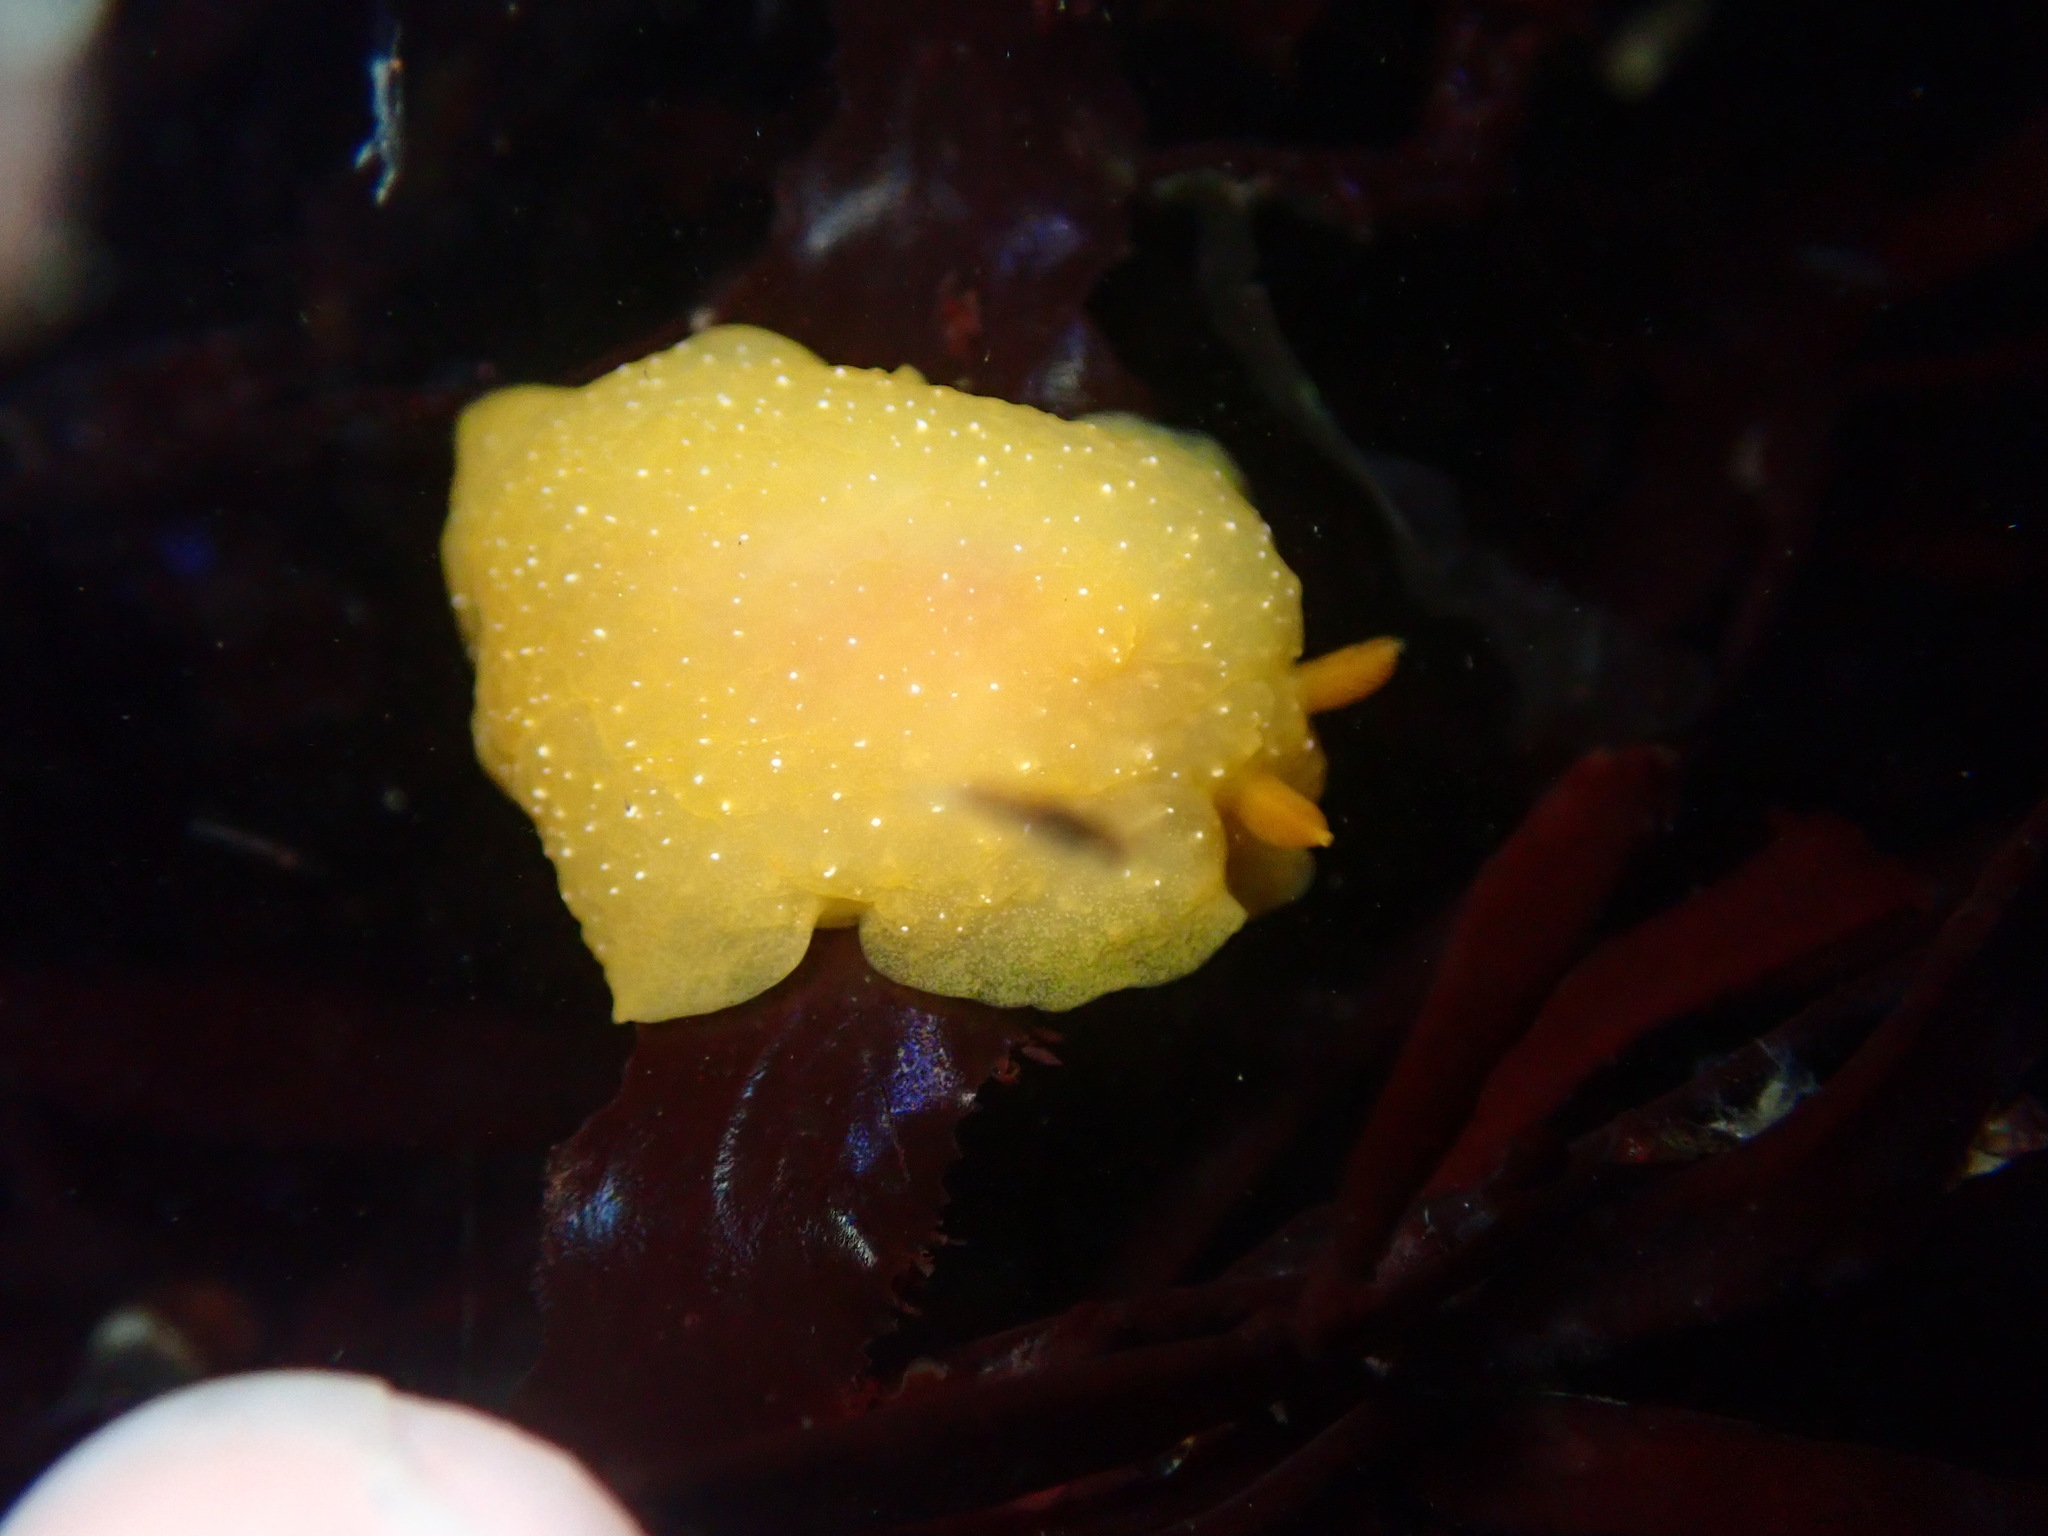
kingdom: Animalia
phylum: Mollusca
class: Gastropoda
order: Nudibranchia
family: Dendrodorididae
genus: Doriopsilla
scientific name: Doriopsilla fulva
